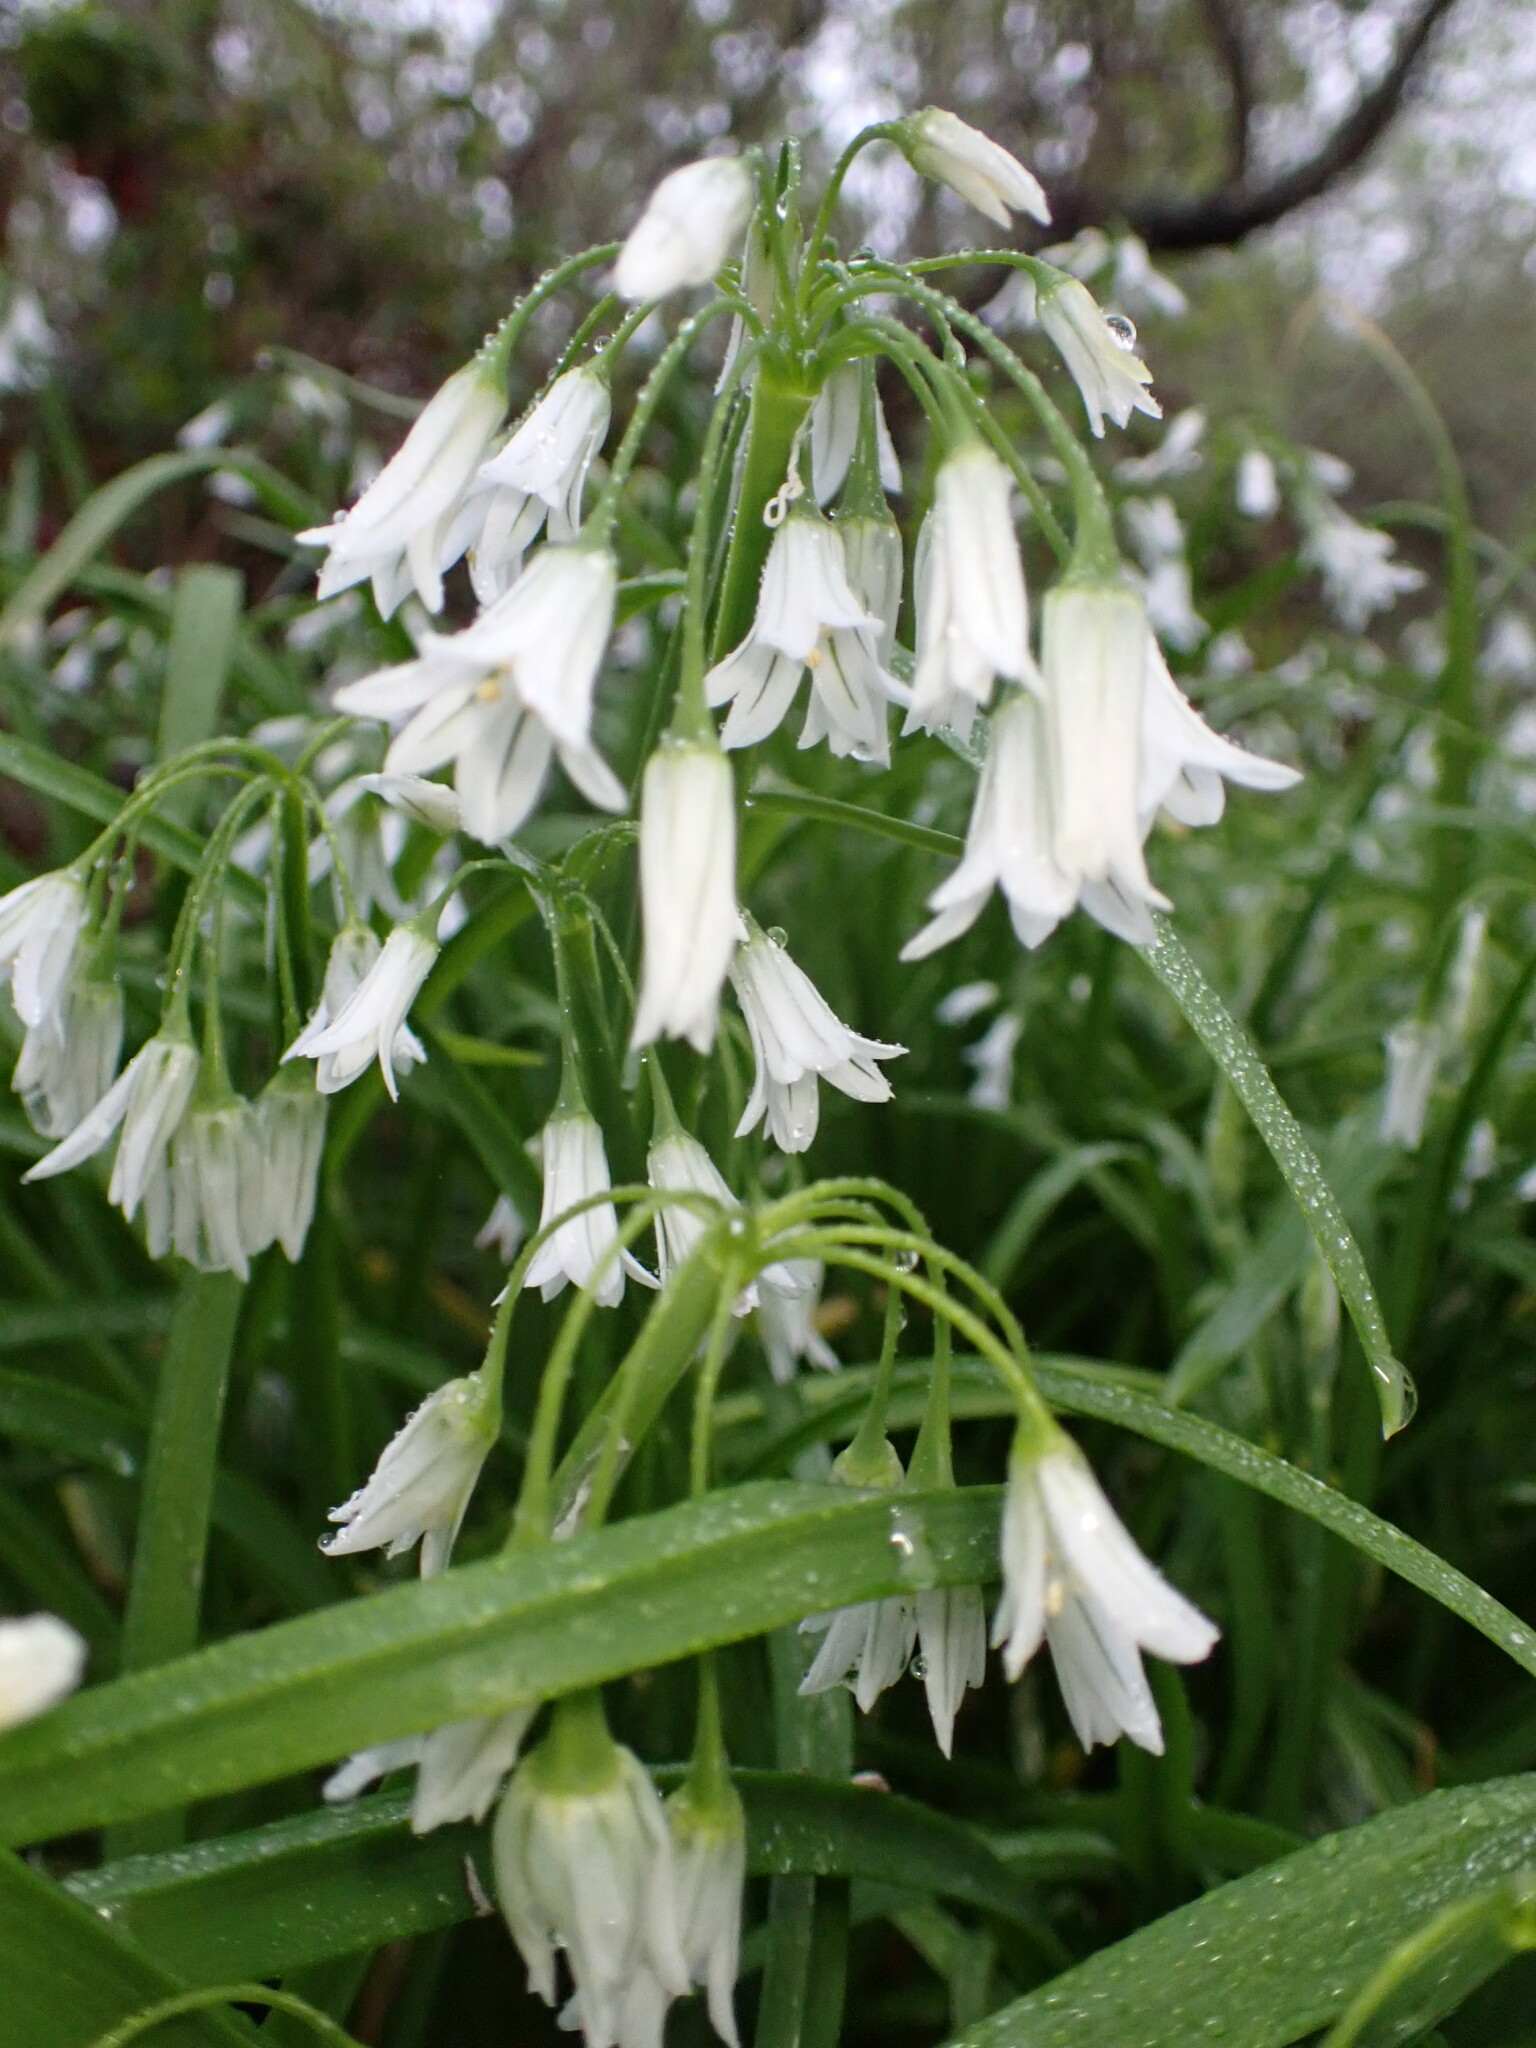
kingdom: Plantae
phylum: Tracheophyta
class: Liliopsida
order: Asparagales
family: Amaryllidaceae
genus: Allium
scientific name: Allium triquetrum
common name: Three-cornered garlic
